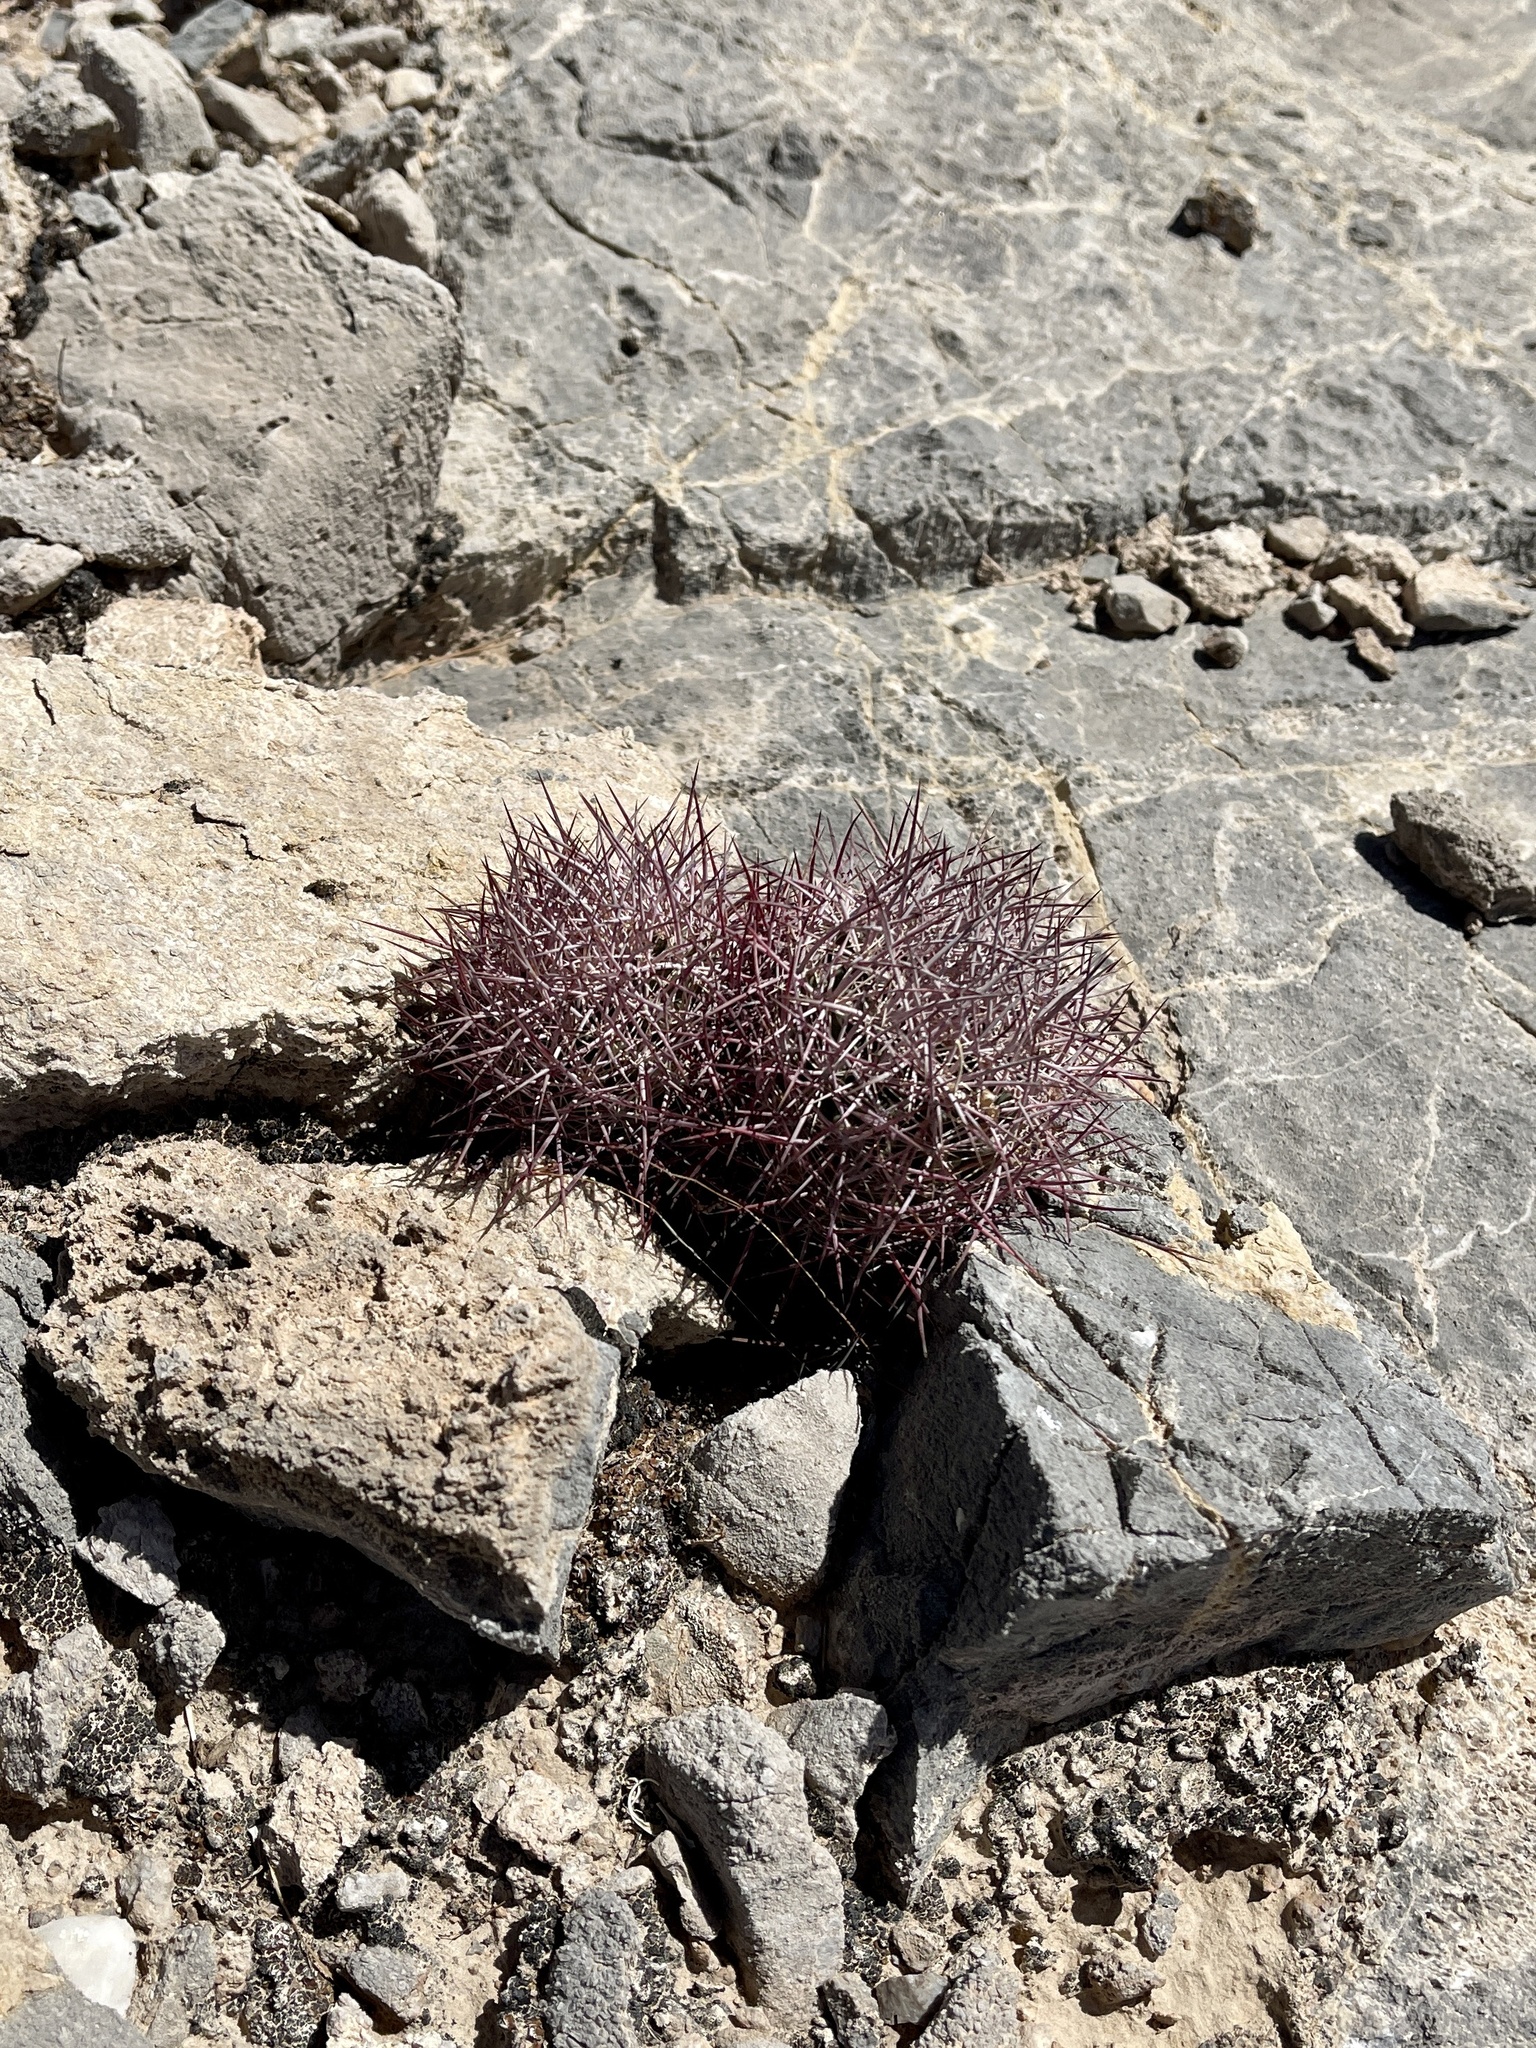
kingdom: Plantae
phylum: Tracheophyta
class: Magnoliopsida
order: Caryophyllales
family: Cactaceae
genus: Sclerocactus
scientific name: Sclerocactus johnsonii
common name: Eight-spine fishhook cactus
